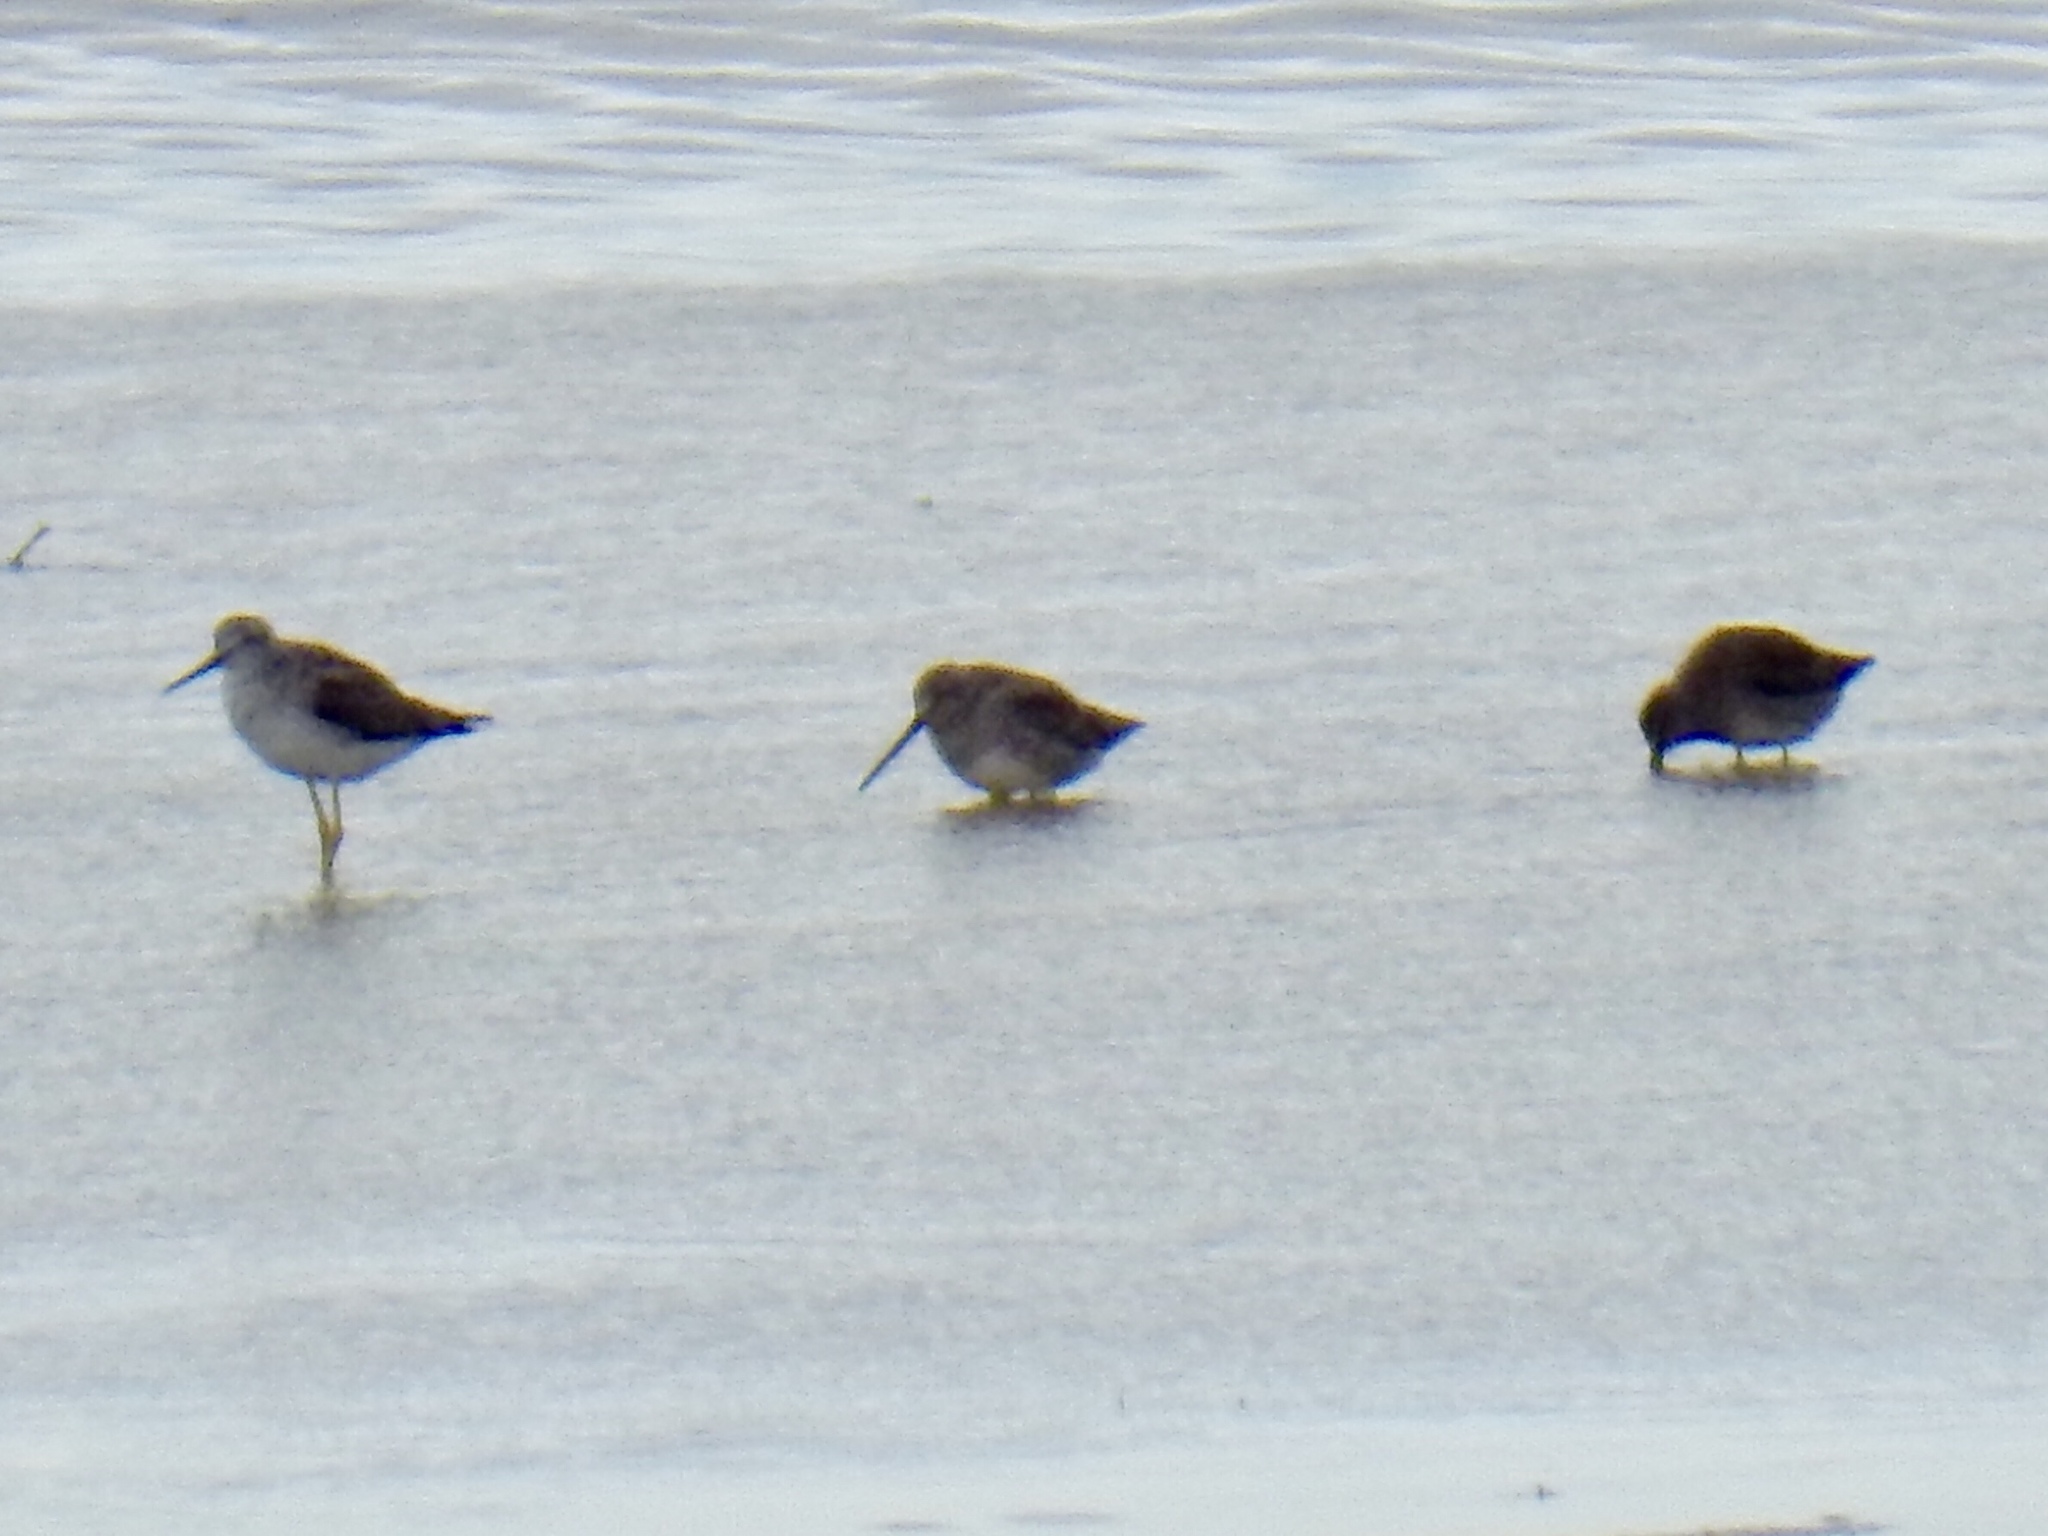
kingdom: Animalia
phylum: Chordata
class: Aves
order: Charadriiformes
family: Scolopacidae
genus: Tringa
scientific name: Tringa melanoleuca
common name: Greater yellowlegs
